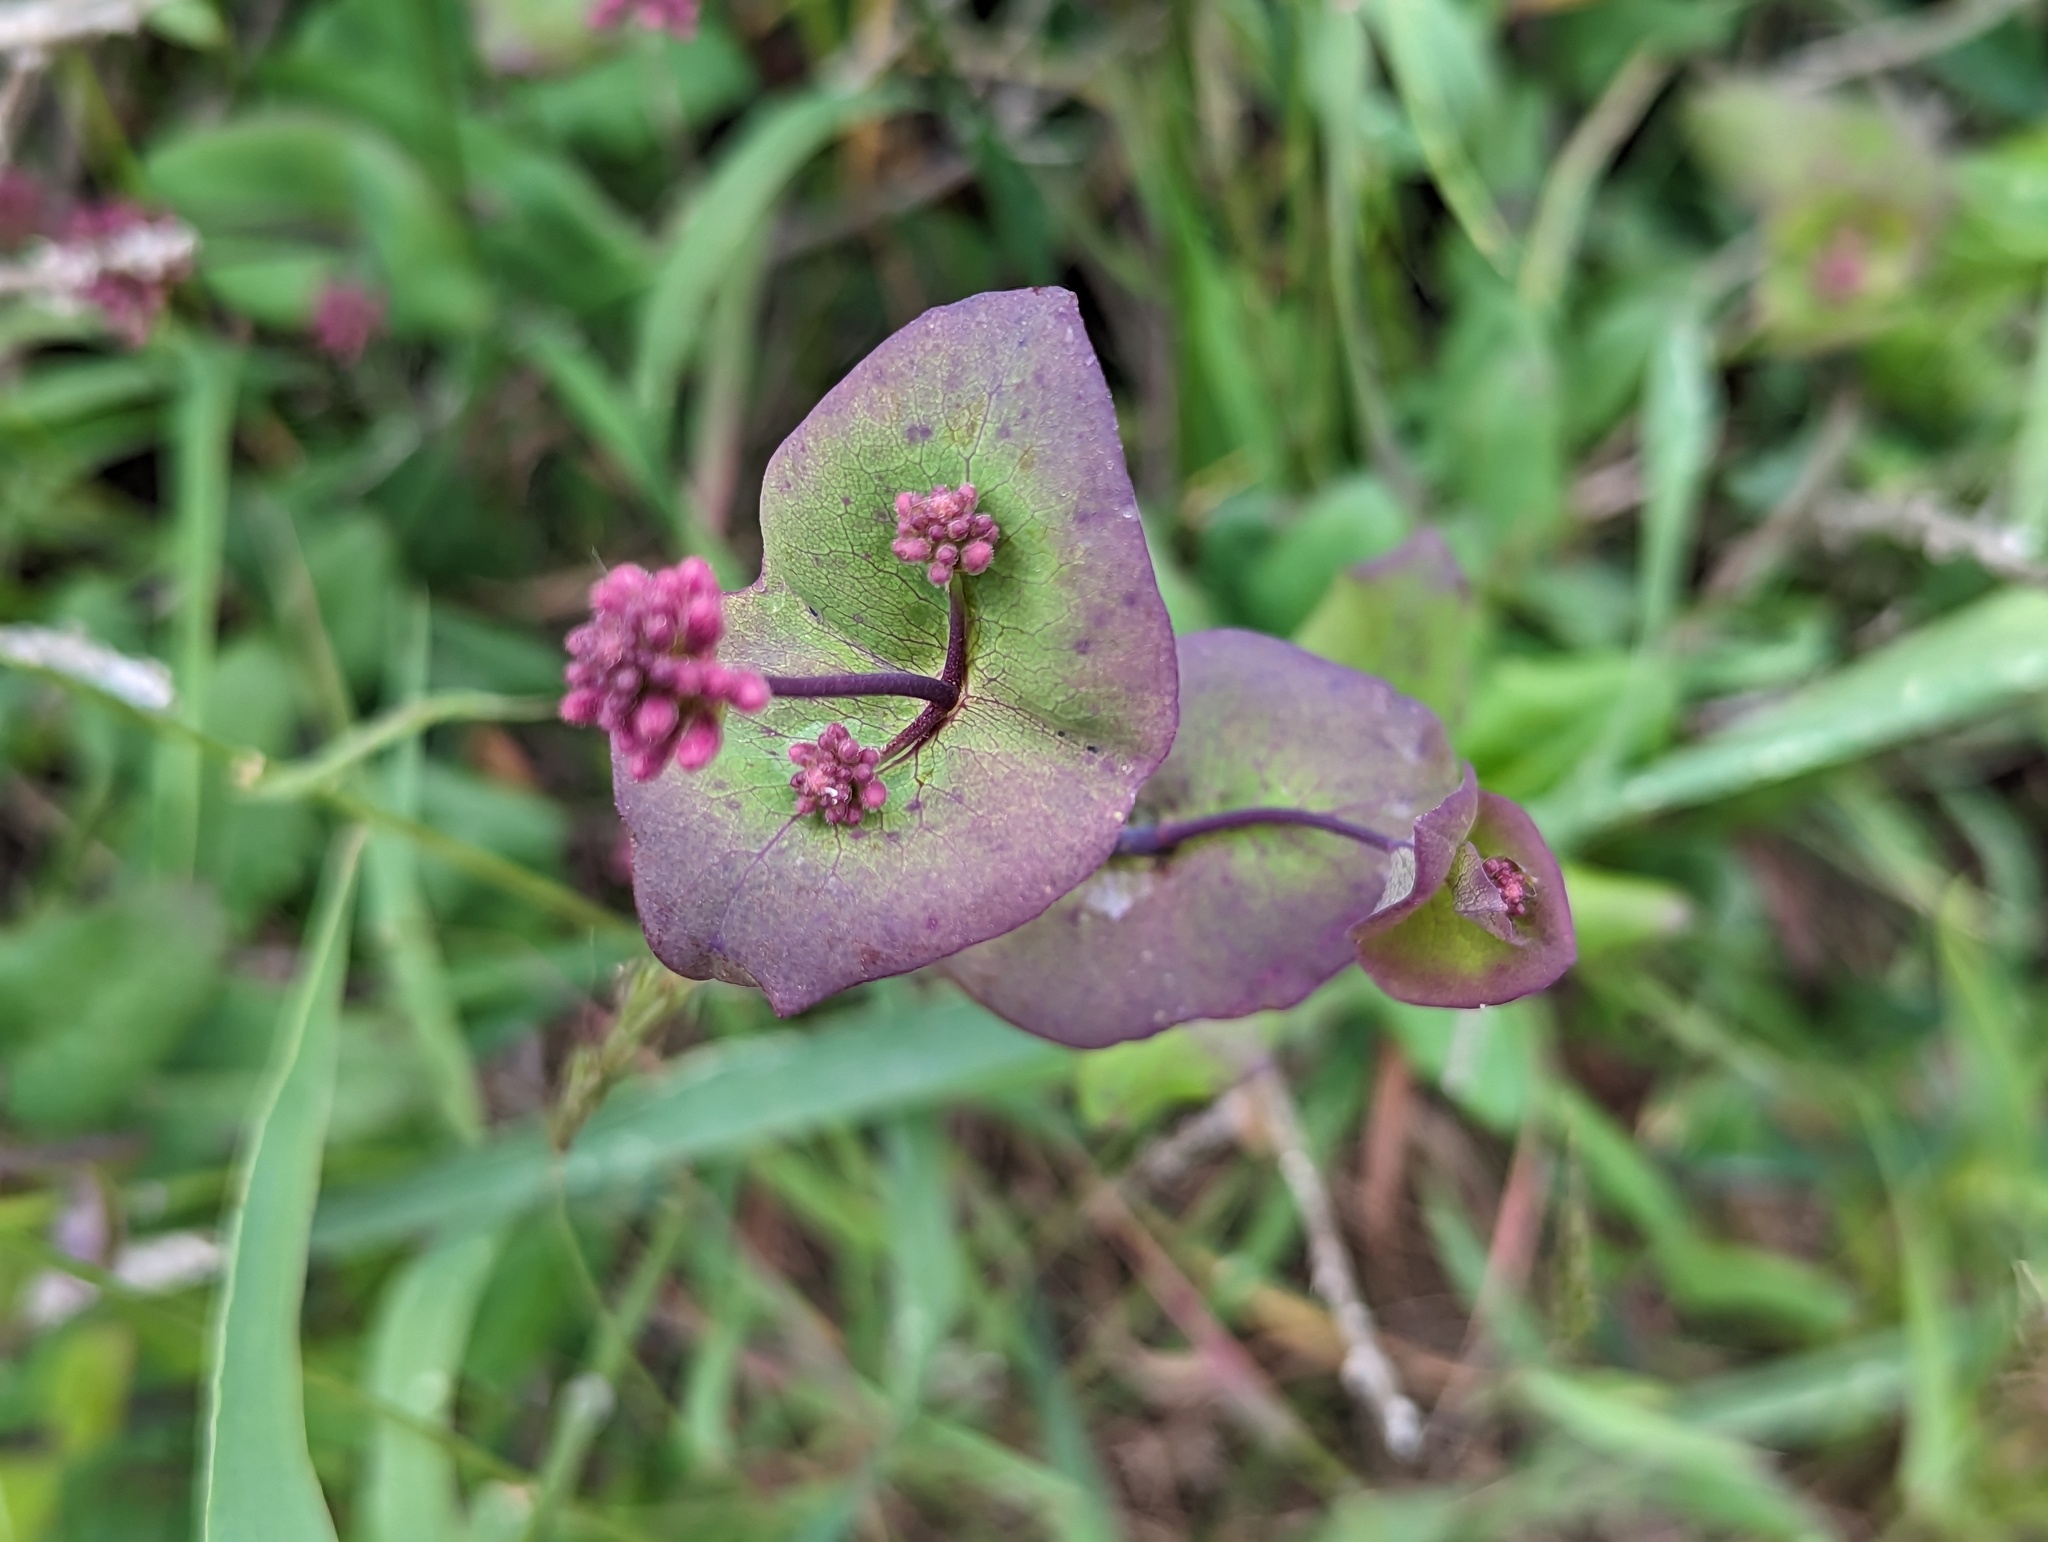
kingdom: Plantae
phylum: Tracheophyta
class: Magnoliopsida
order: Dipsacales
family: Caprifoliaceae
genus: Lonicera
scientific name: Lonicera hispidula
